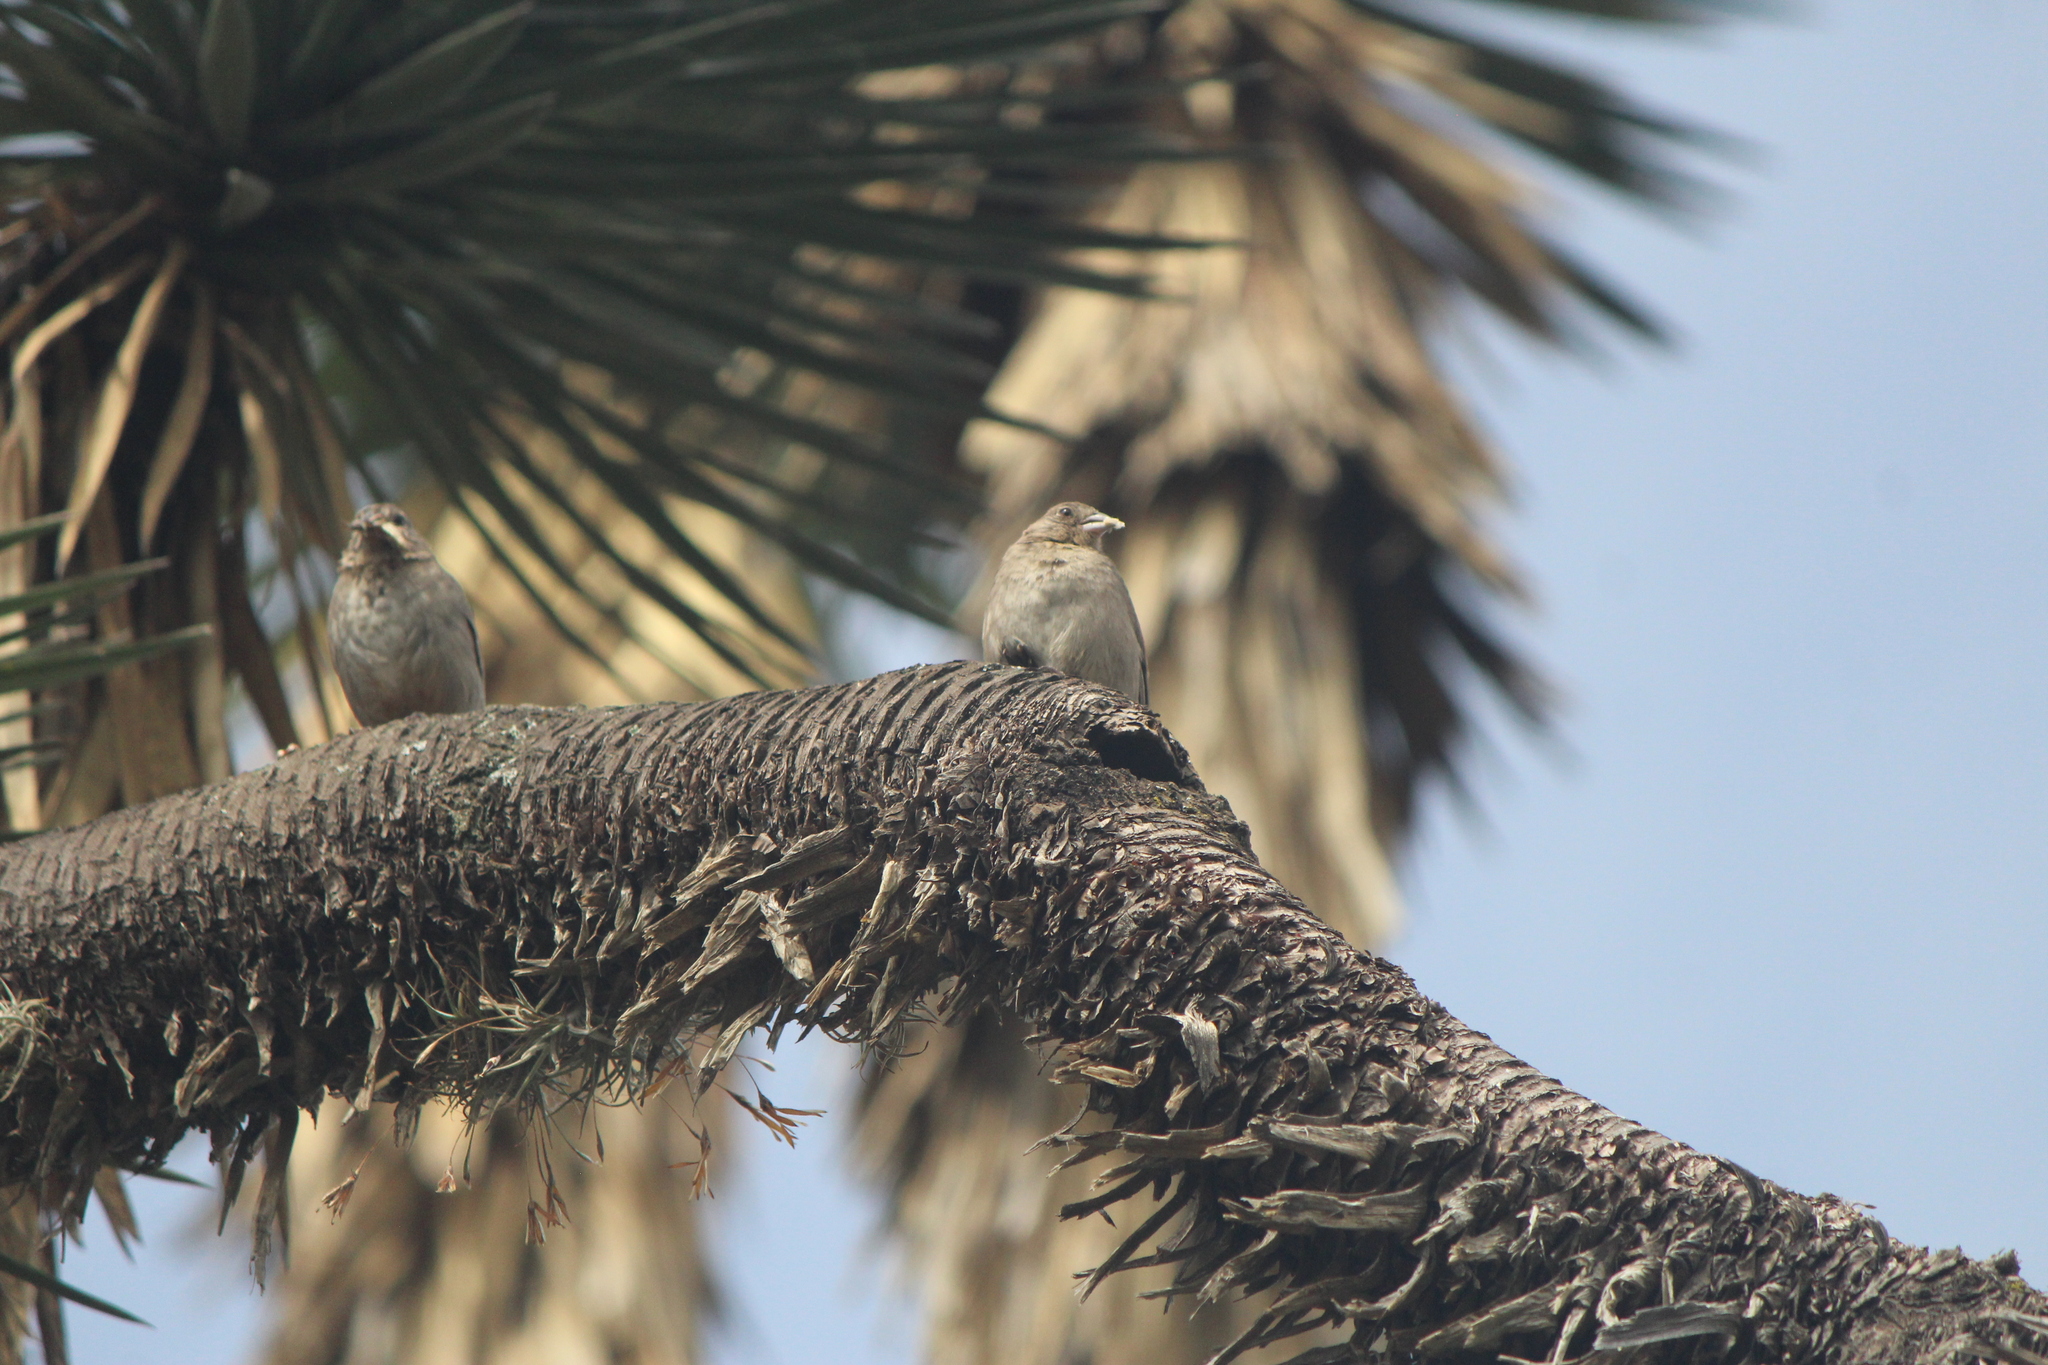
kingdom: Animalia
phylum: Chordata
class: Aves
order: Passeriformes
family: Passerellidae
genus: Melozone
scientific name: Melozone fusca
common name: Canyon towhee
